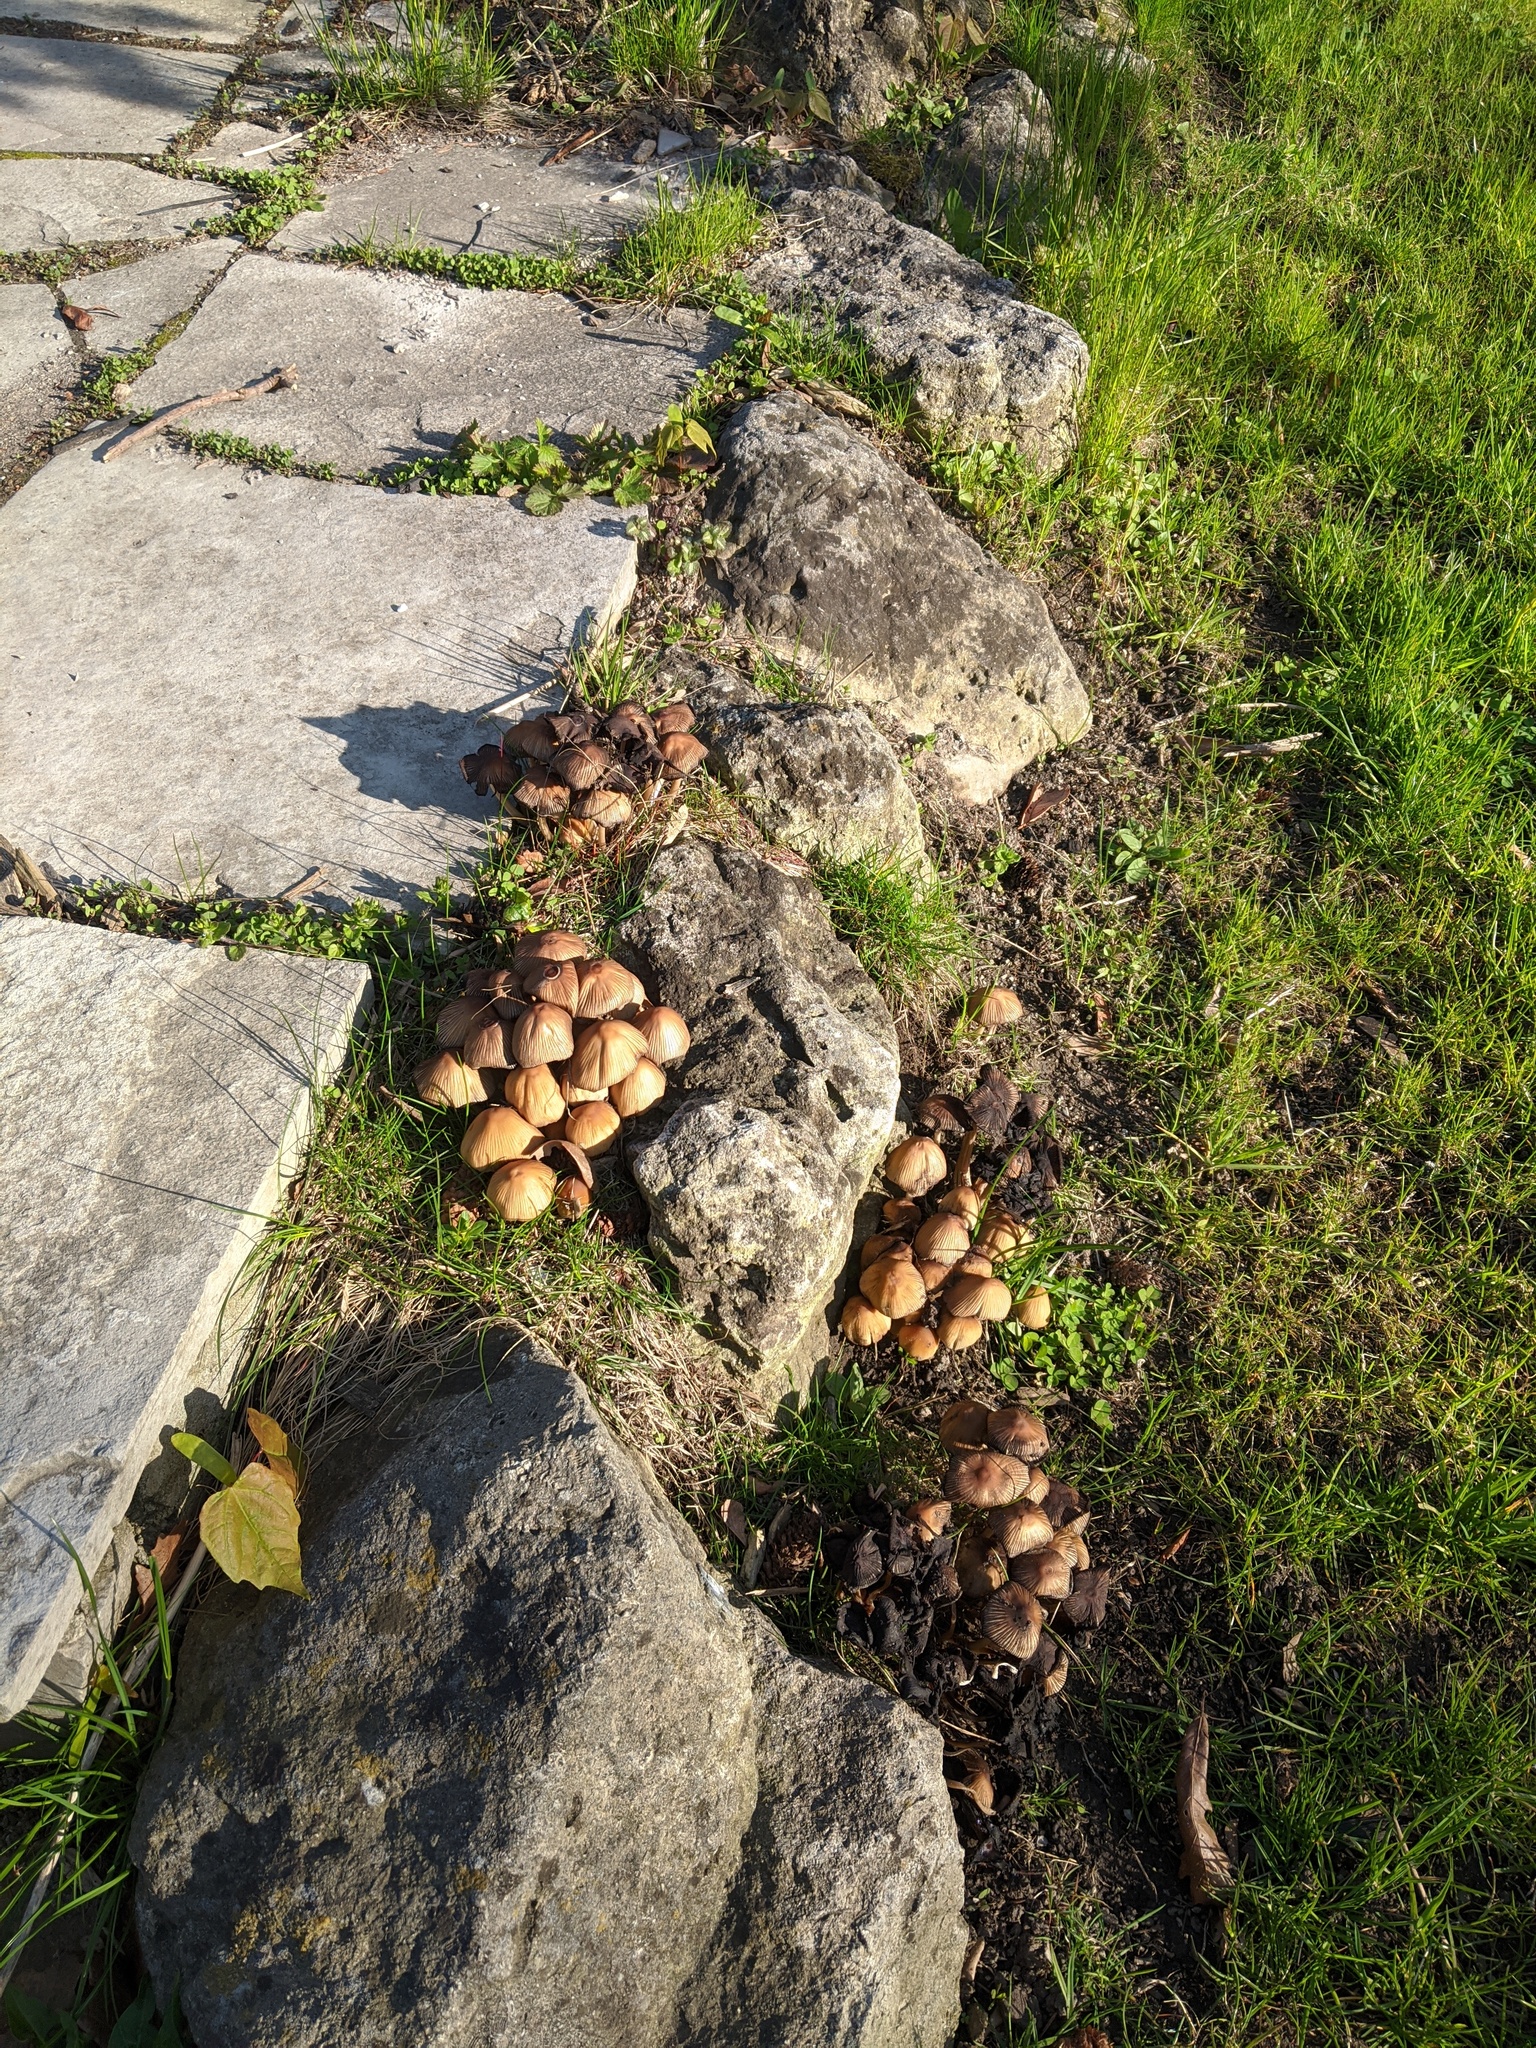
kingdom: Fungi
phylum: Basidiomycota
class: Agaricomycetes
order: Agaricales
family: Psathyrellaceae
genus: Coprinellus
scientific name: Coprinellus micaceus
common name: Glistening ink-cap
